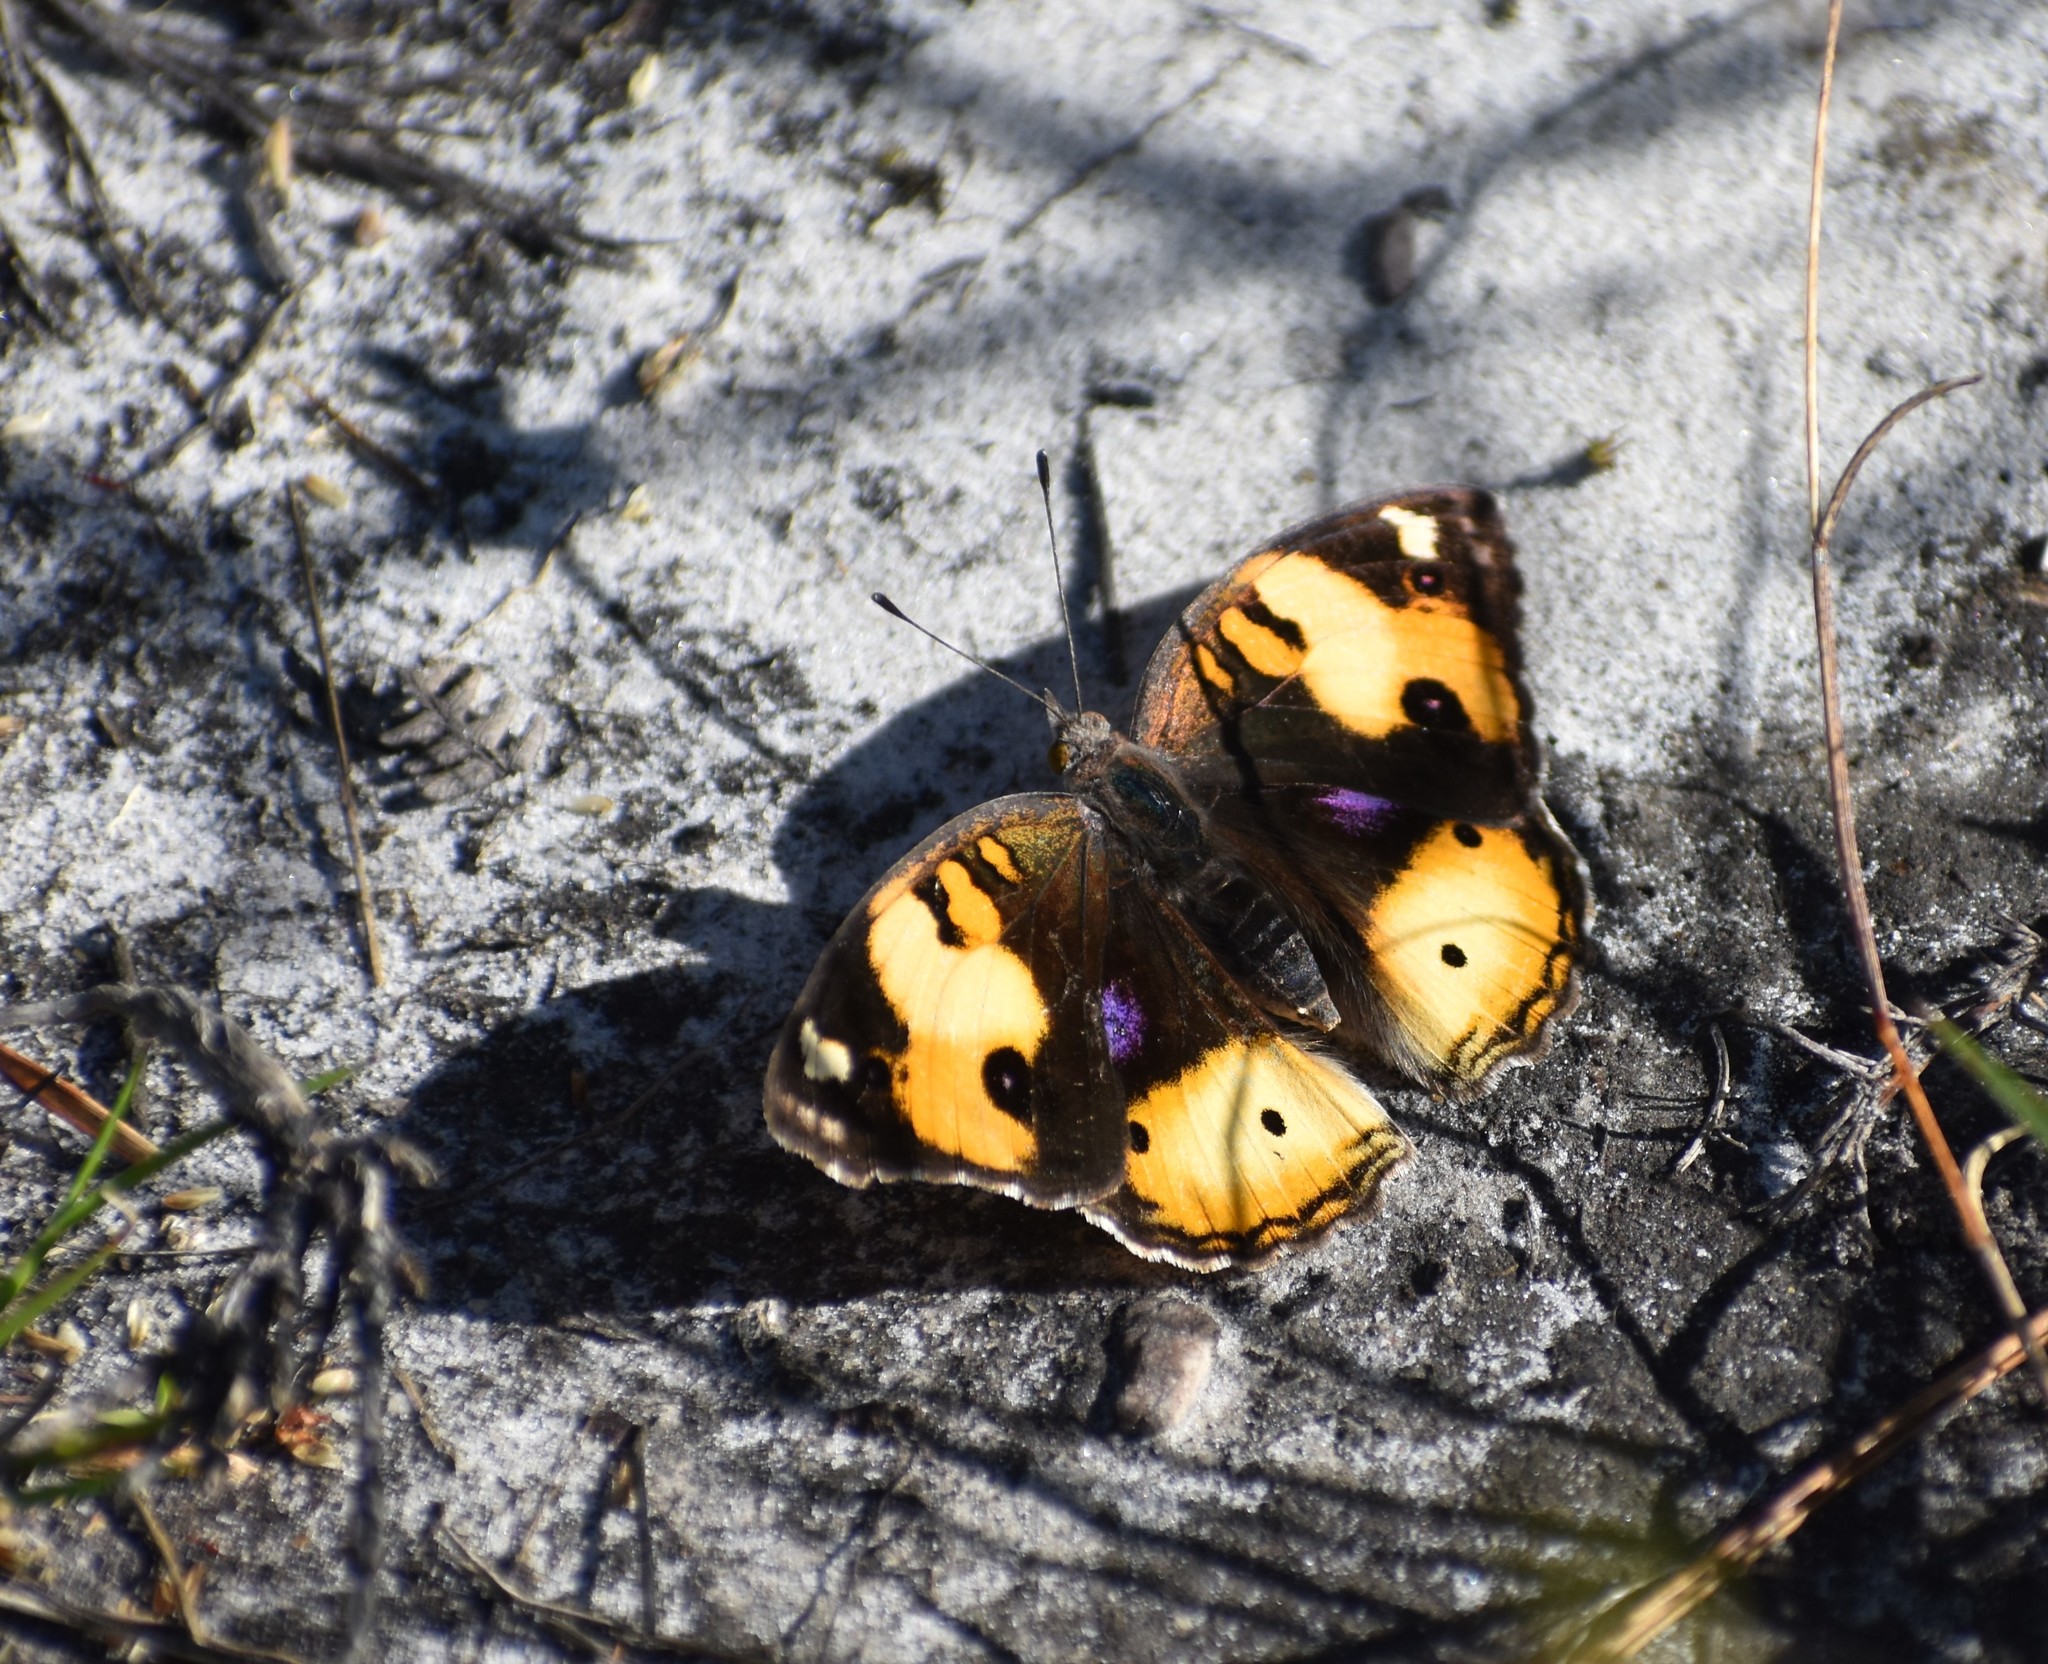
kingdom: Animalia
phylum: Arthropoda
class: Insecta
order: Lepidoptera
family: Nymphalidae
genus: Junonia
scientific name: Junonia hierta
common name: Yellow pansy
